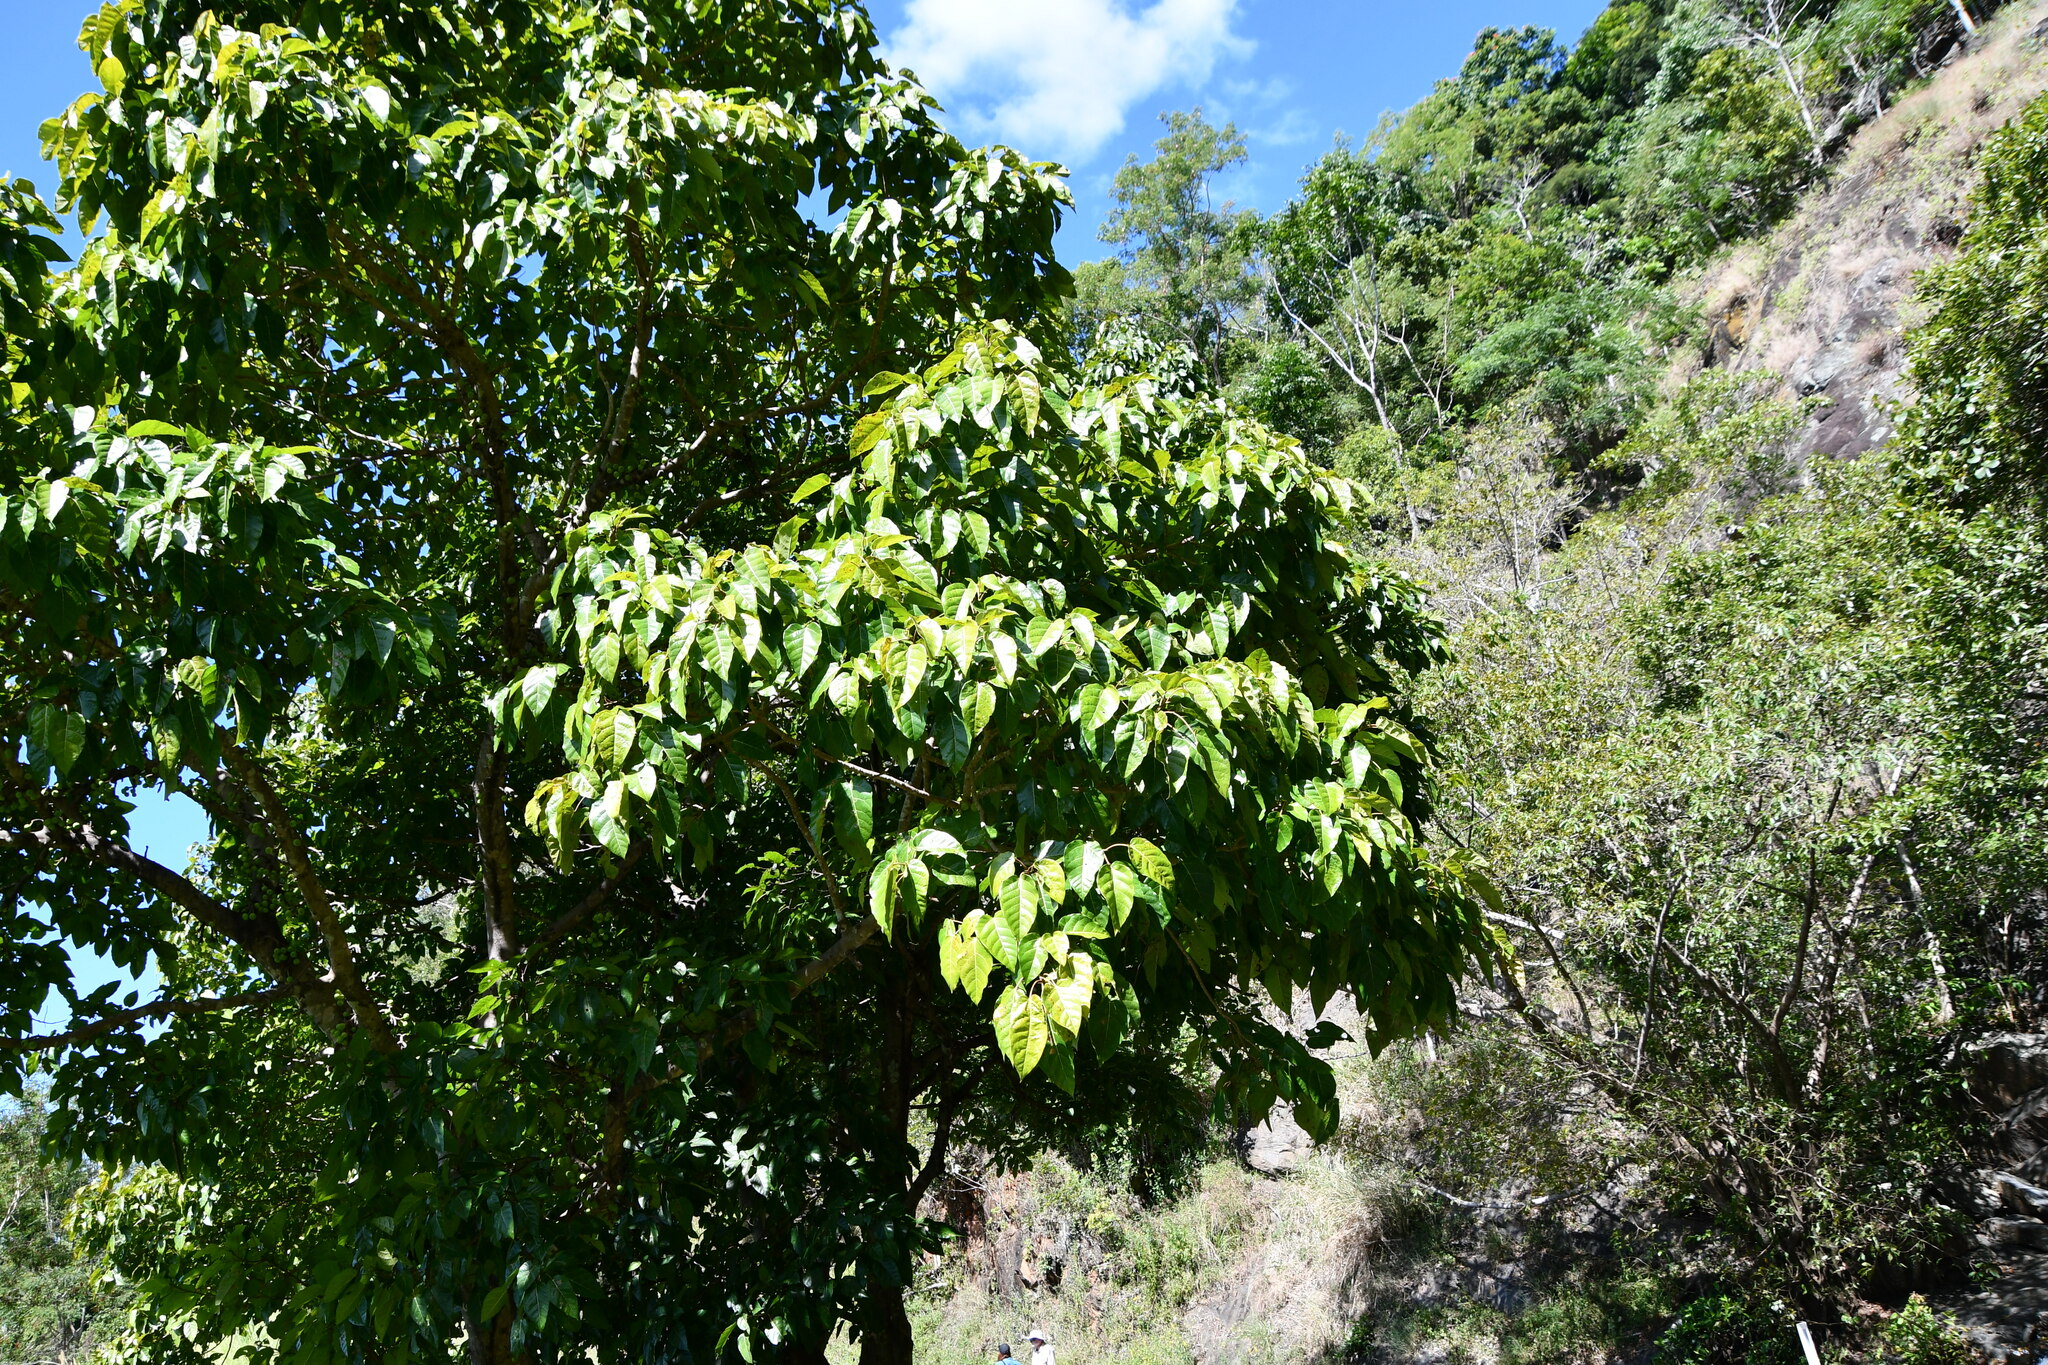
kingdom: Plantae
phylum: Tracheophyta
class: Magnoliopsida
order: Rosales
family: Moraceae
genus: Ficus
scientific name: Ficus variegata
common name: Variegated fig
